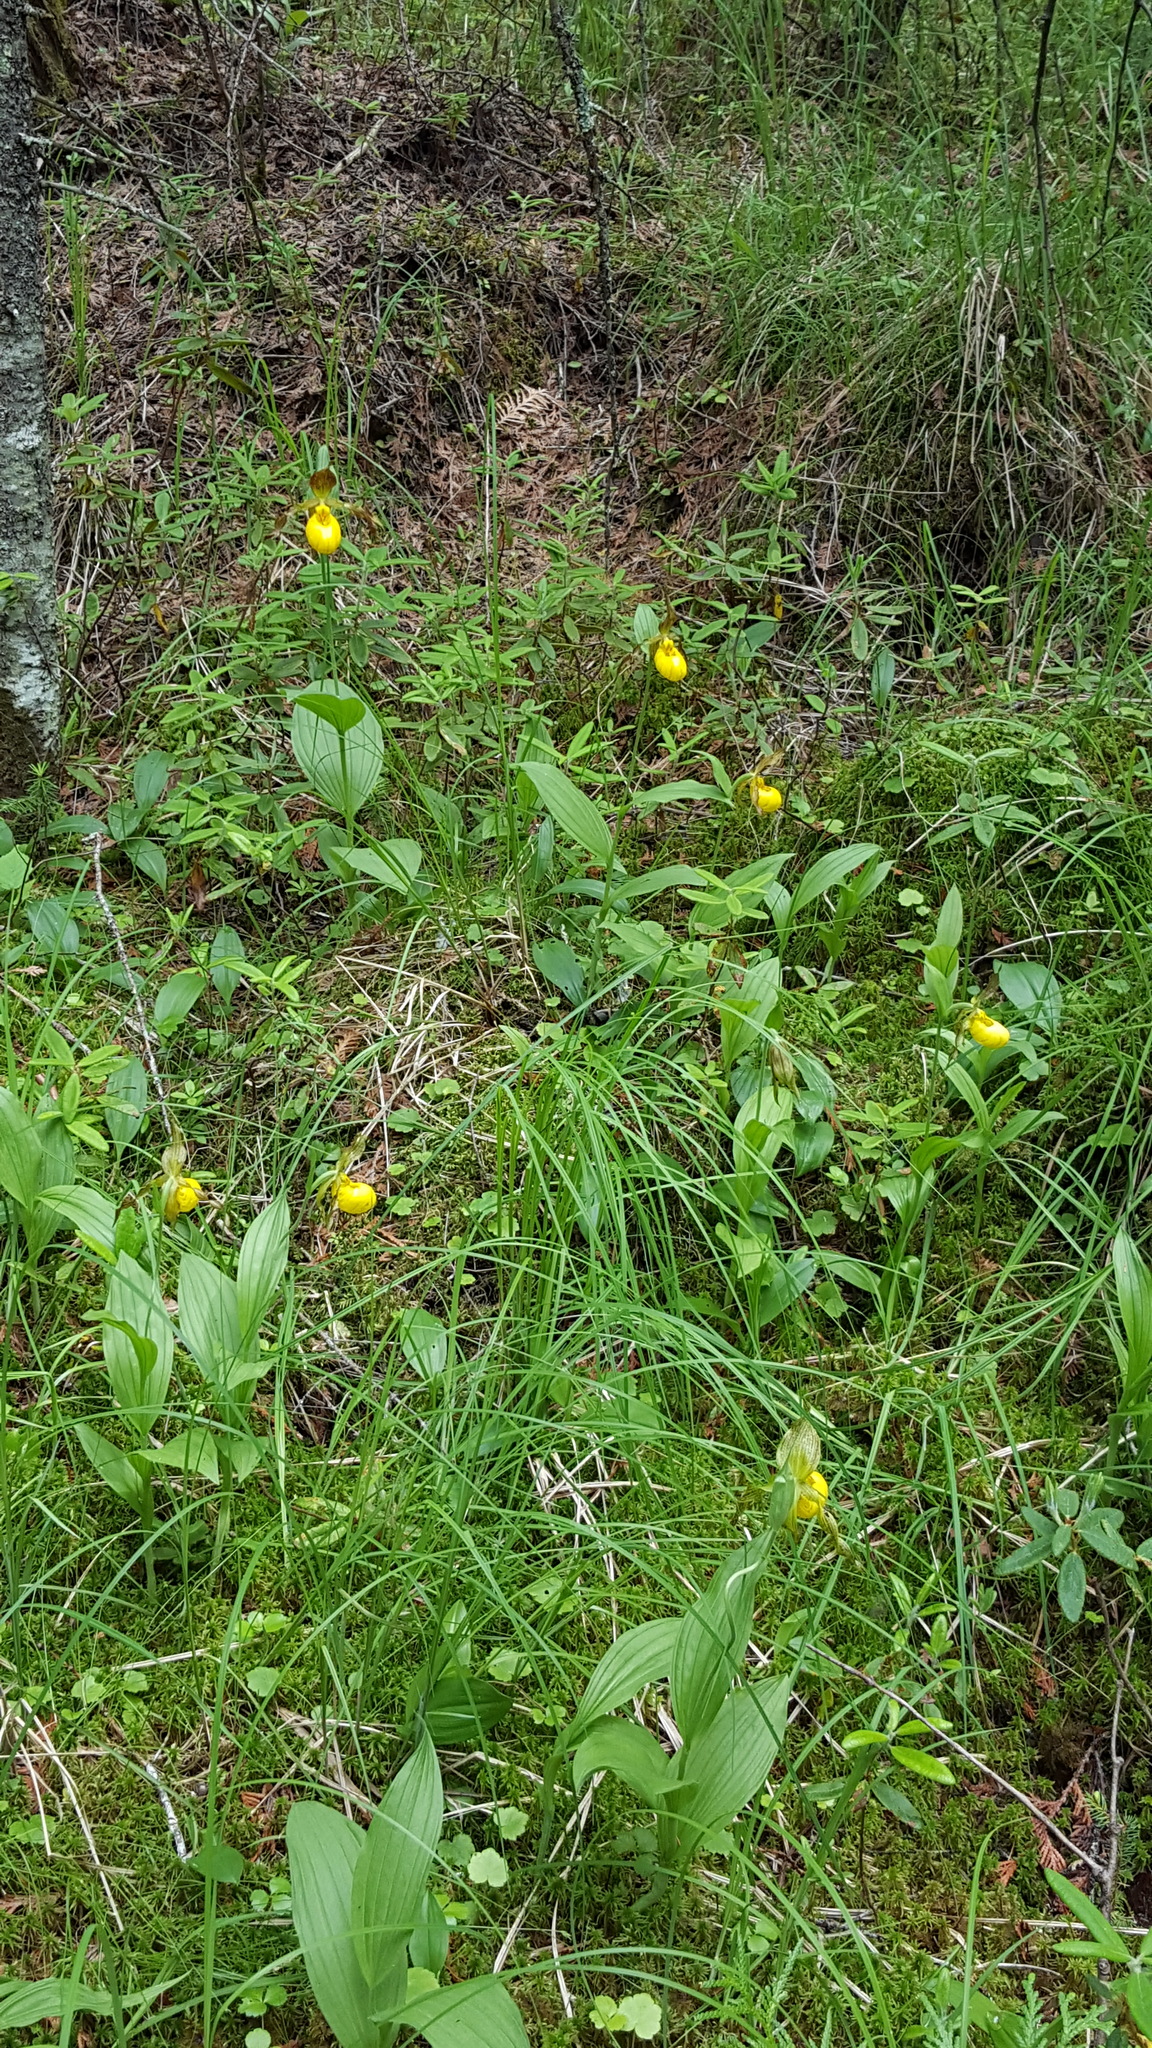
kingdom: Plantae
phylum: Tracheophyta
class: Liliopsida
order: Asparagales
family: Orchidaceae
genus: Cypripedium
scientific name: Cypripedium parviflorum
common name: American yellow lady's-slipper
